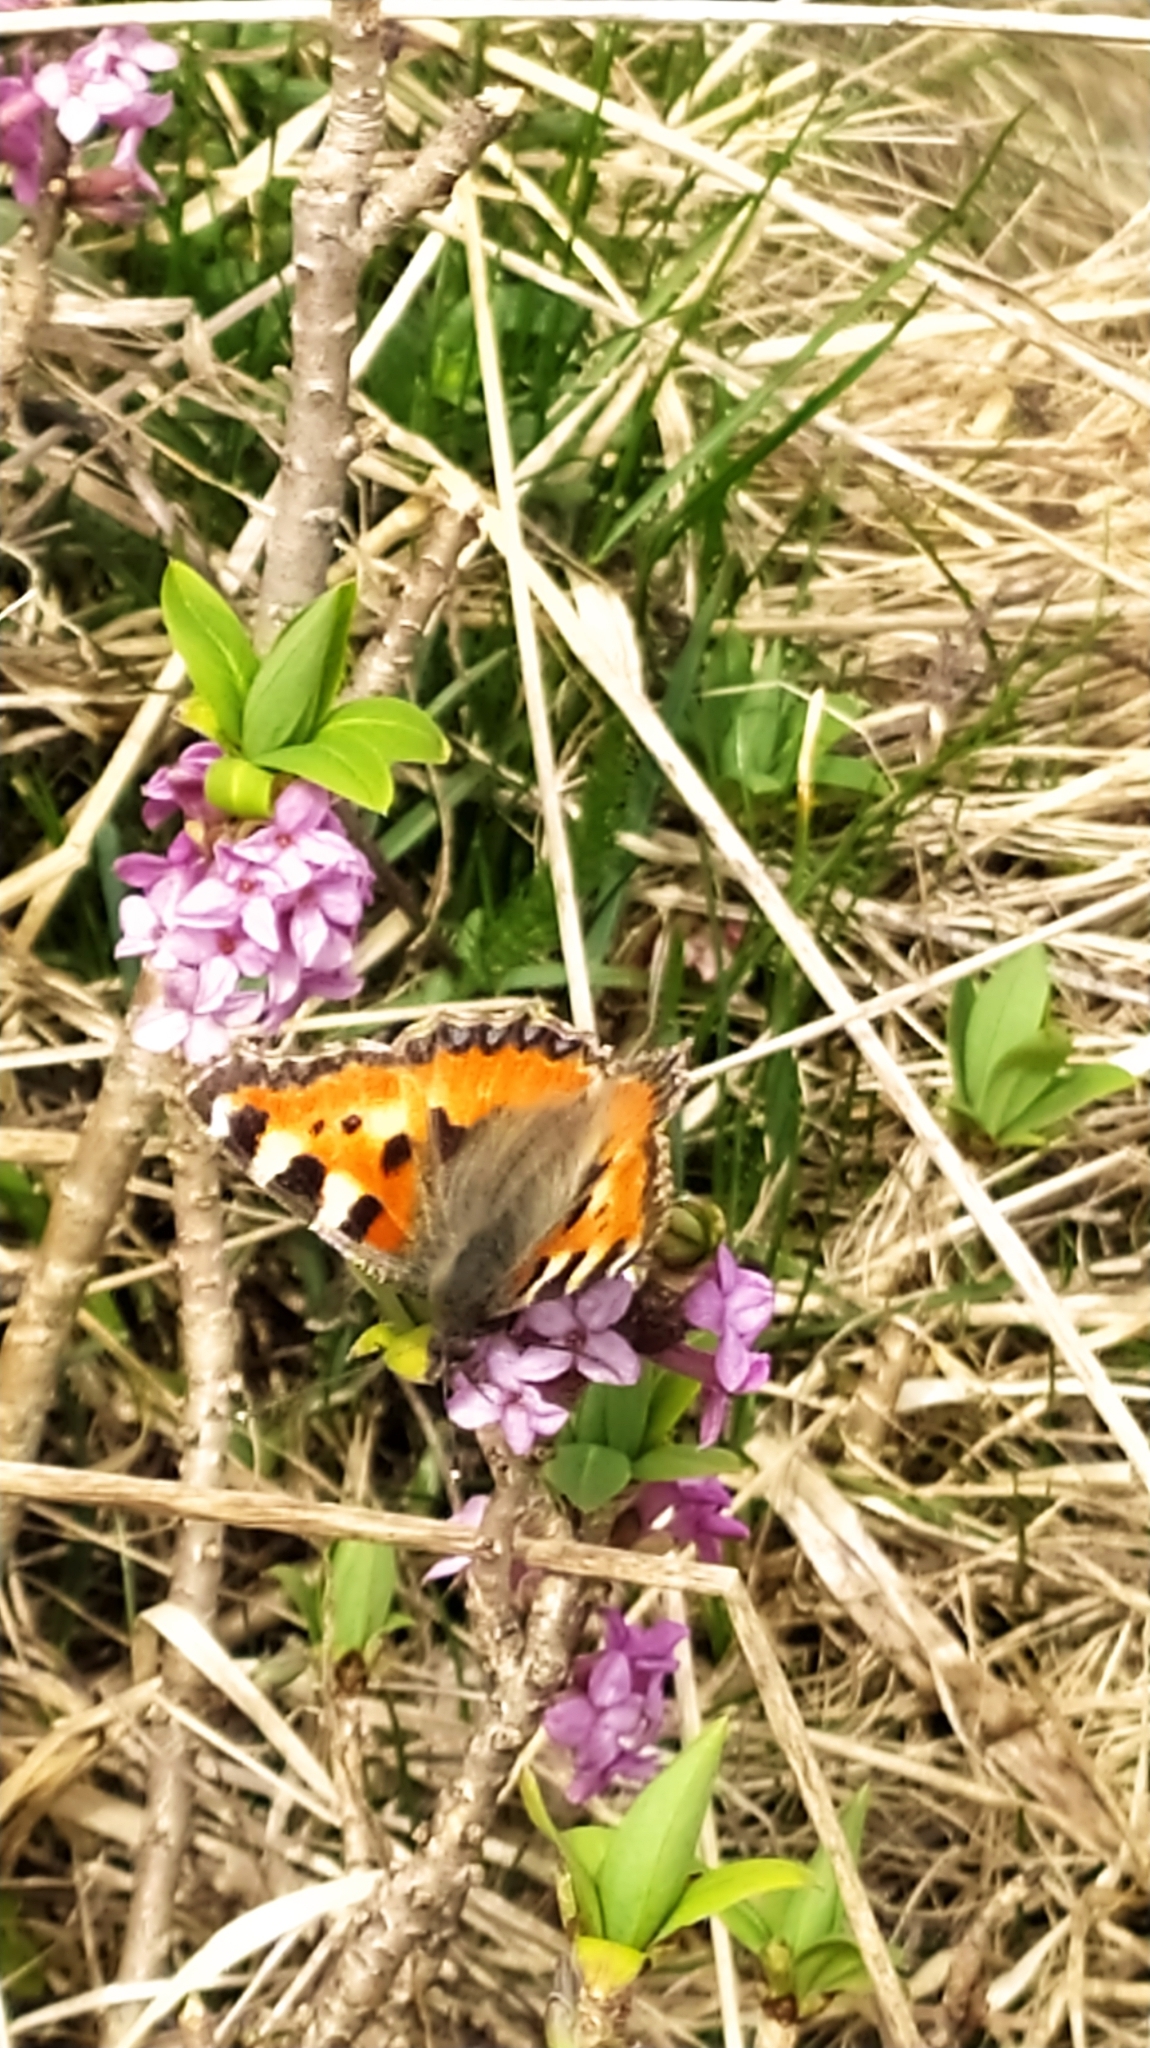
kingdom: Animalia
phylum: Arthropoda
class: Insecta
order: Lepidoptera
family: Nymphalidae
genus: Aglais
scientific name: Aglais urticae
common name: Small tortoiseshell
